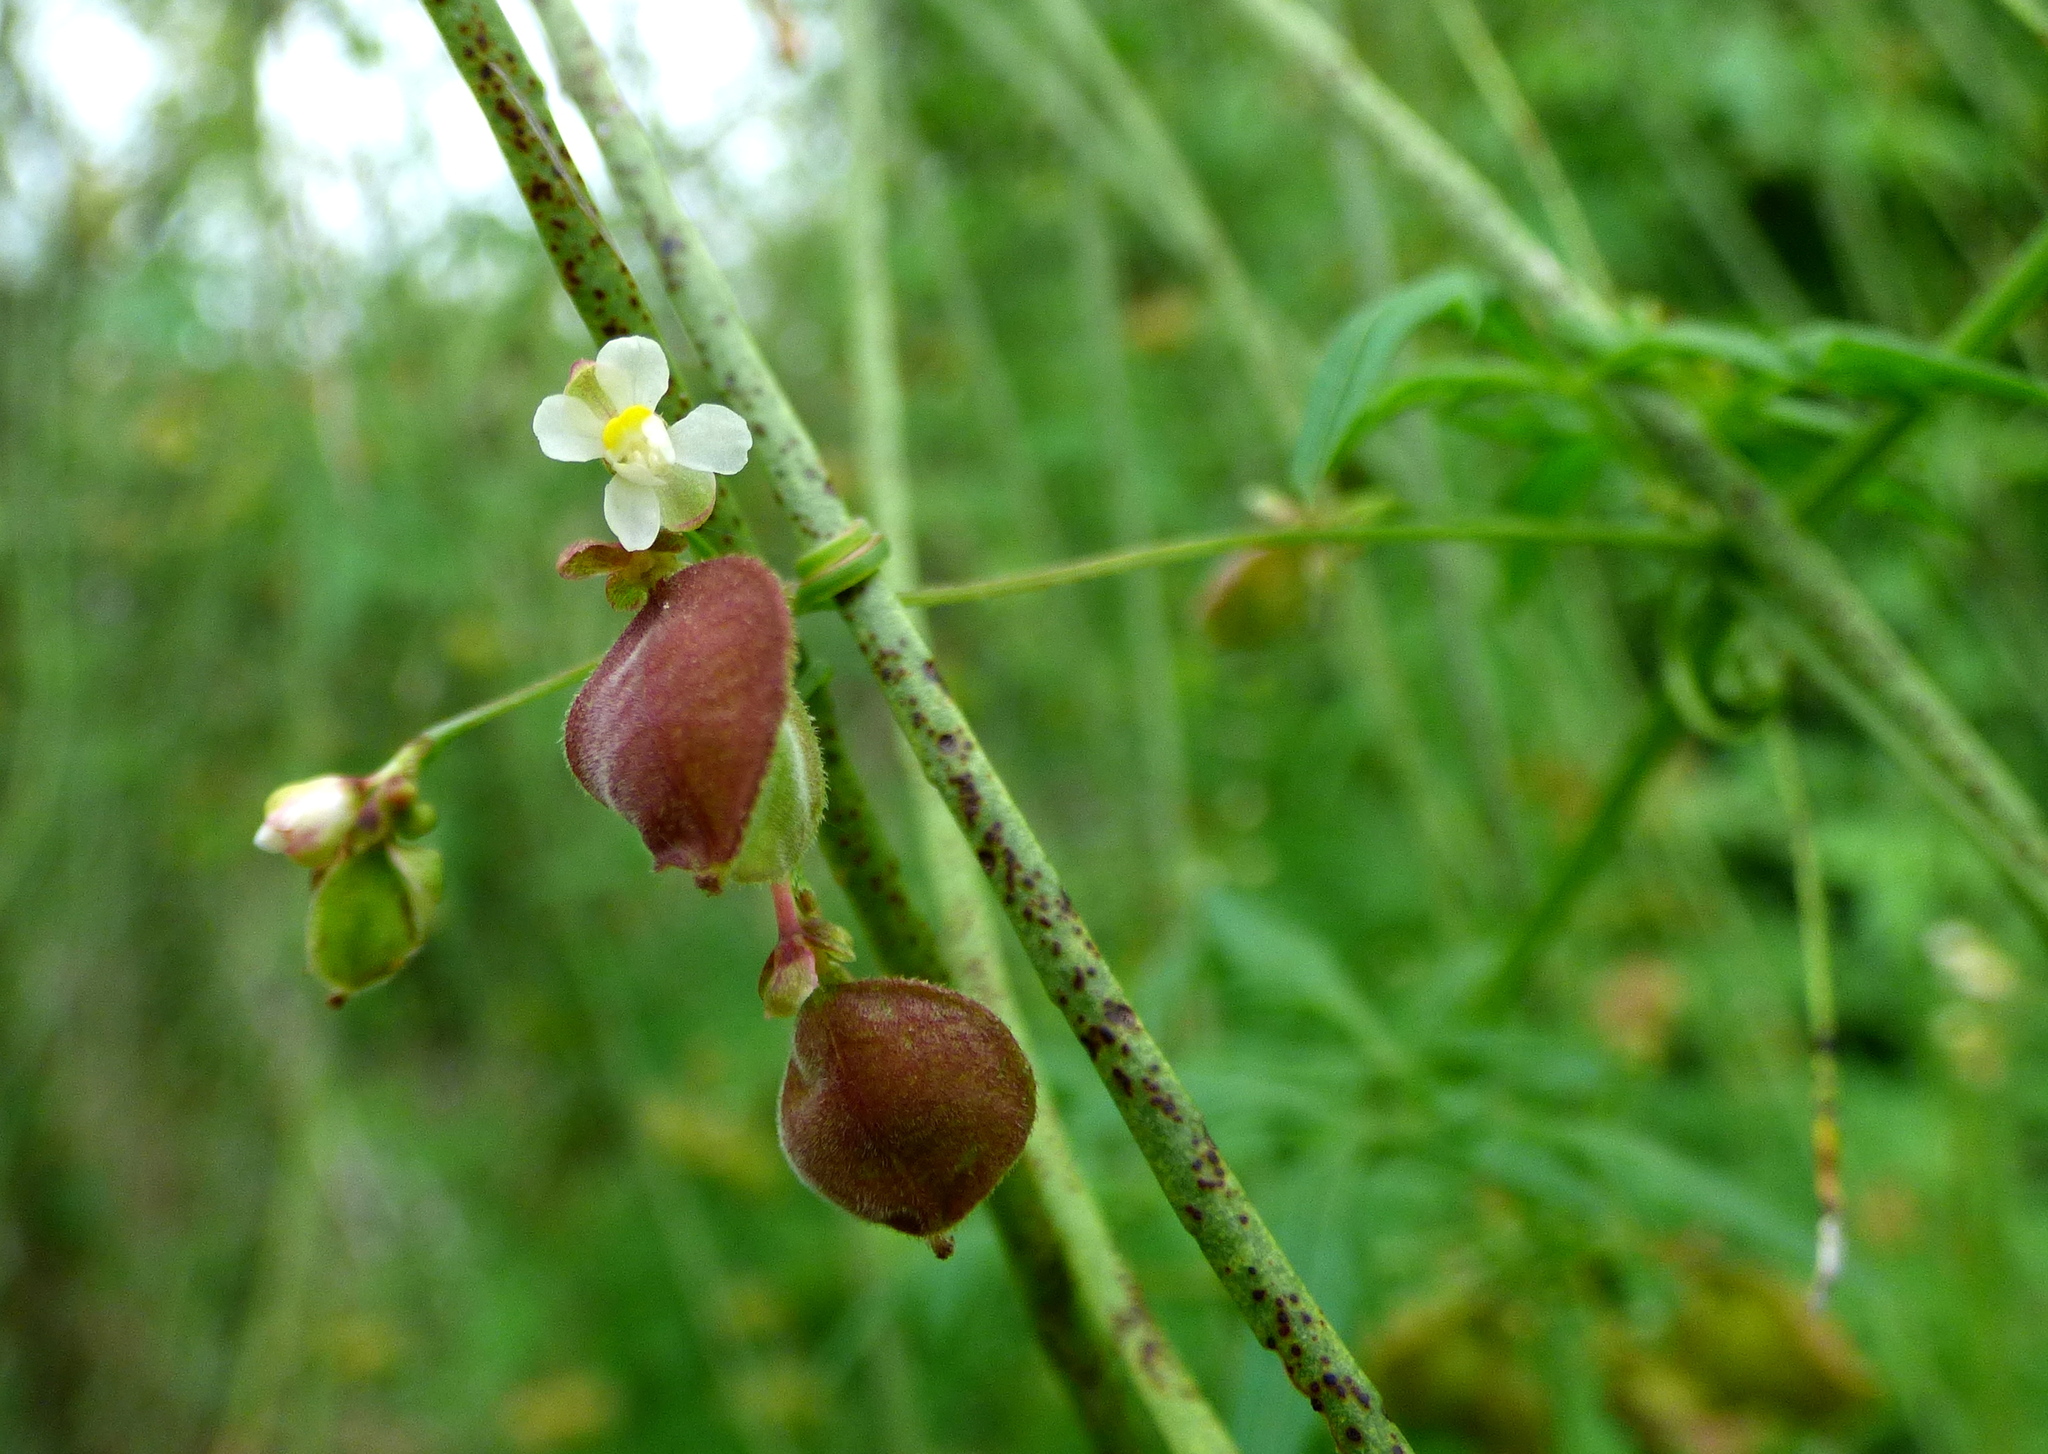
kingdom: Plantae
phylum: Tracheophyta
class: Magnoliopsida
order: Sapindales
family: Sapindaceae
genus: Cardiospermum
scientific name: Cardiospermum halicacabum
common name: Balloon vine
